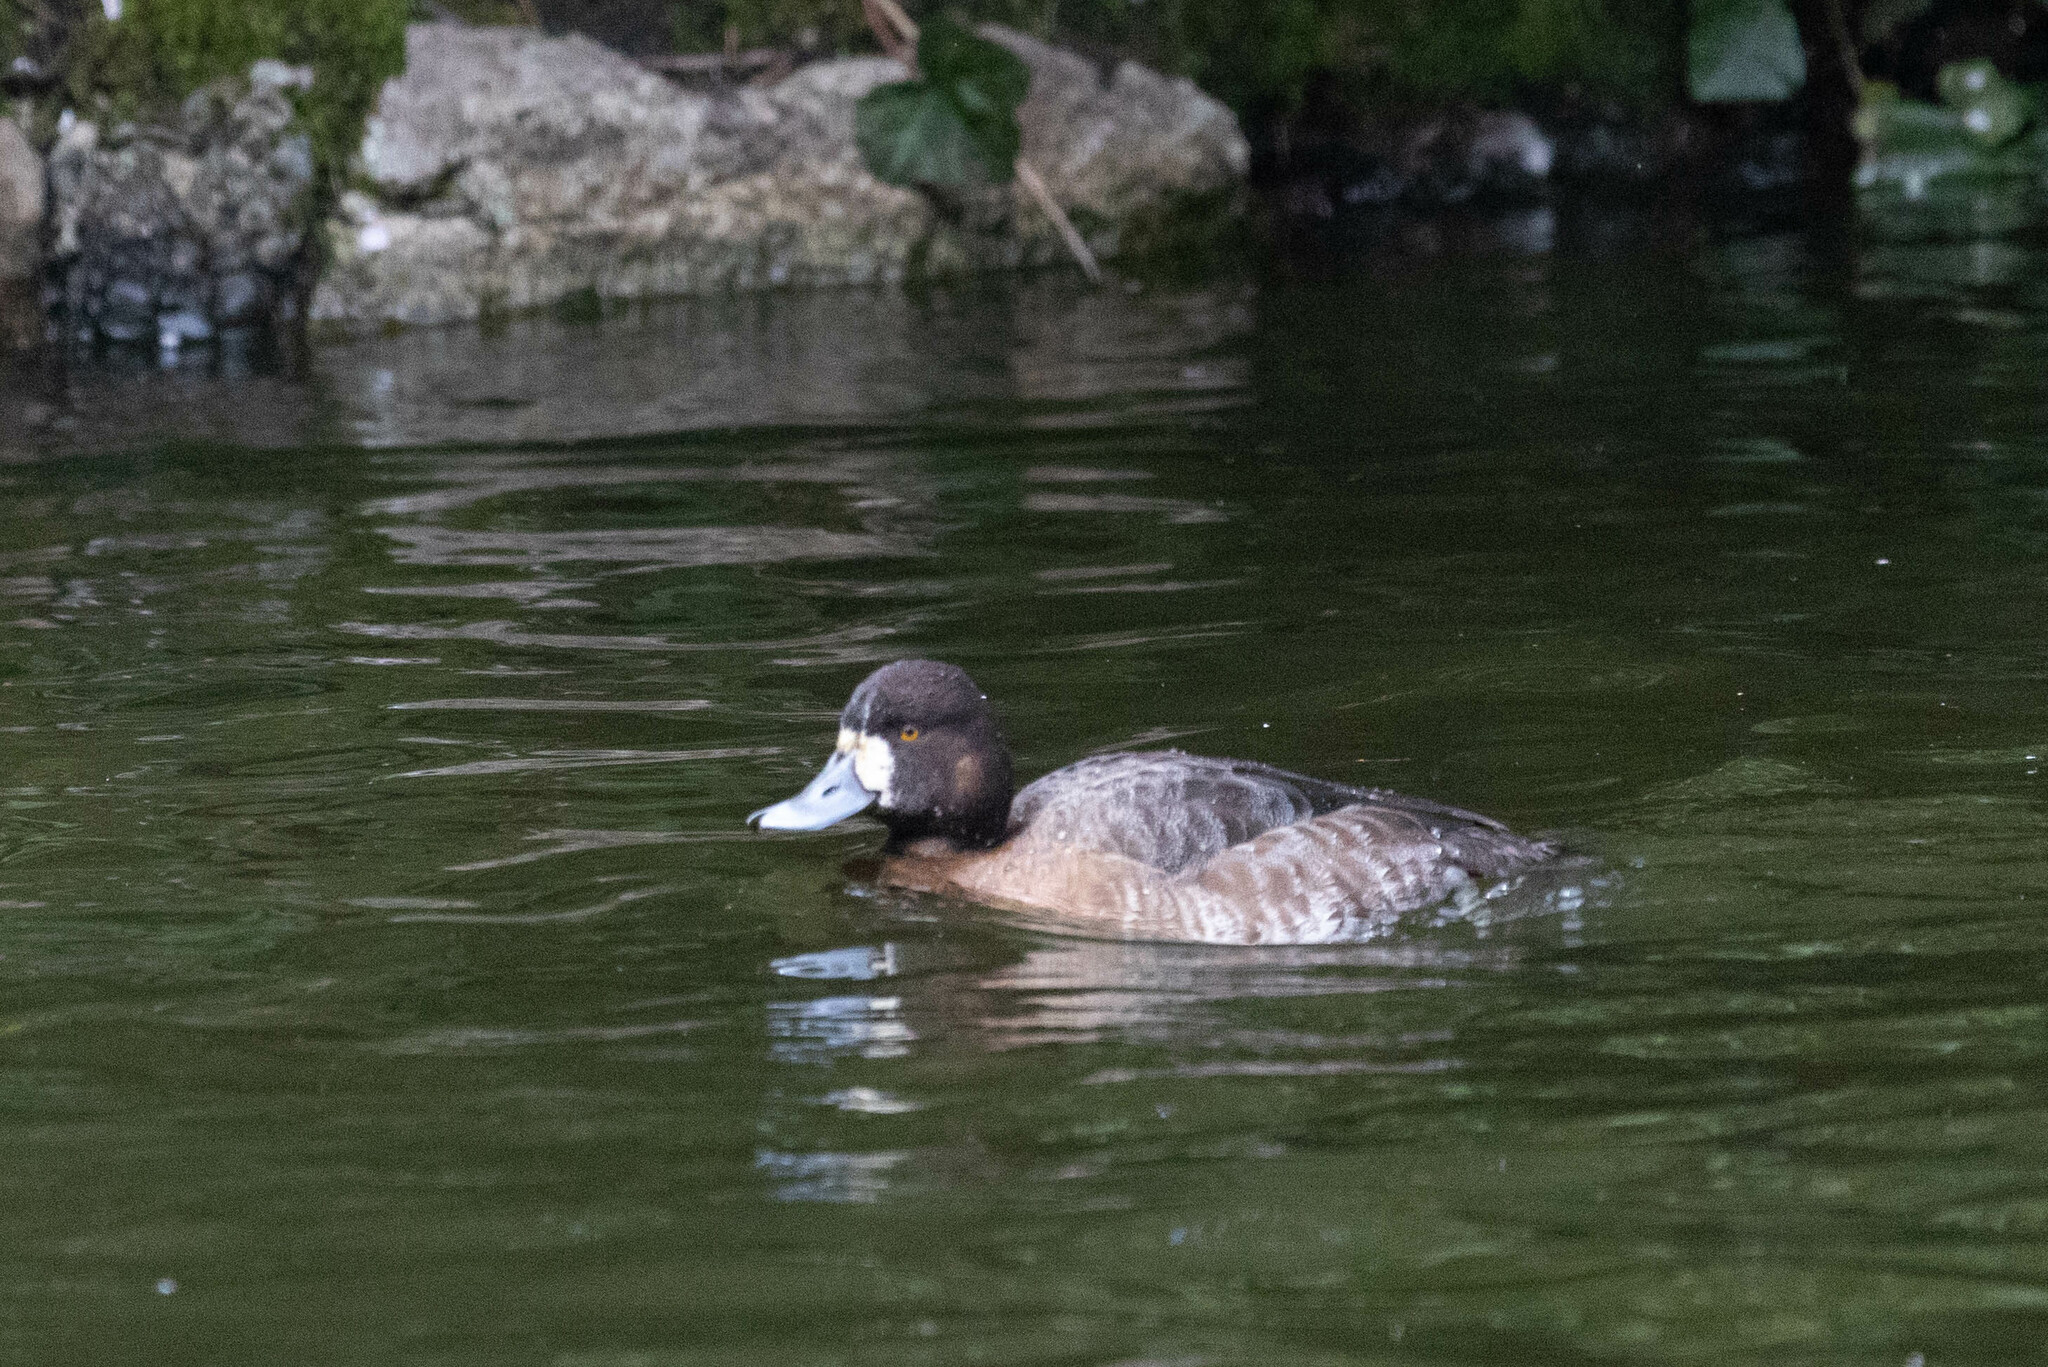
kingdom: Animalia
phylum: Chordata
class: Aves
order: Anseriformes
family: Anatidae
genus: Aythya
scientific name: Aythya affinis
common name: Lesser scaup
